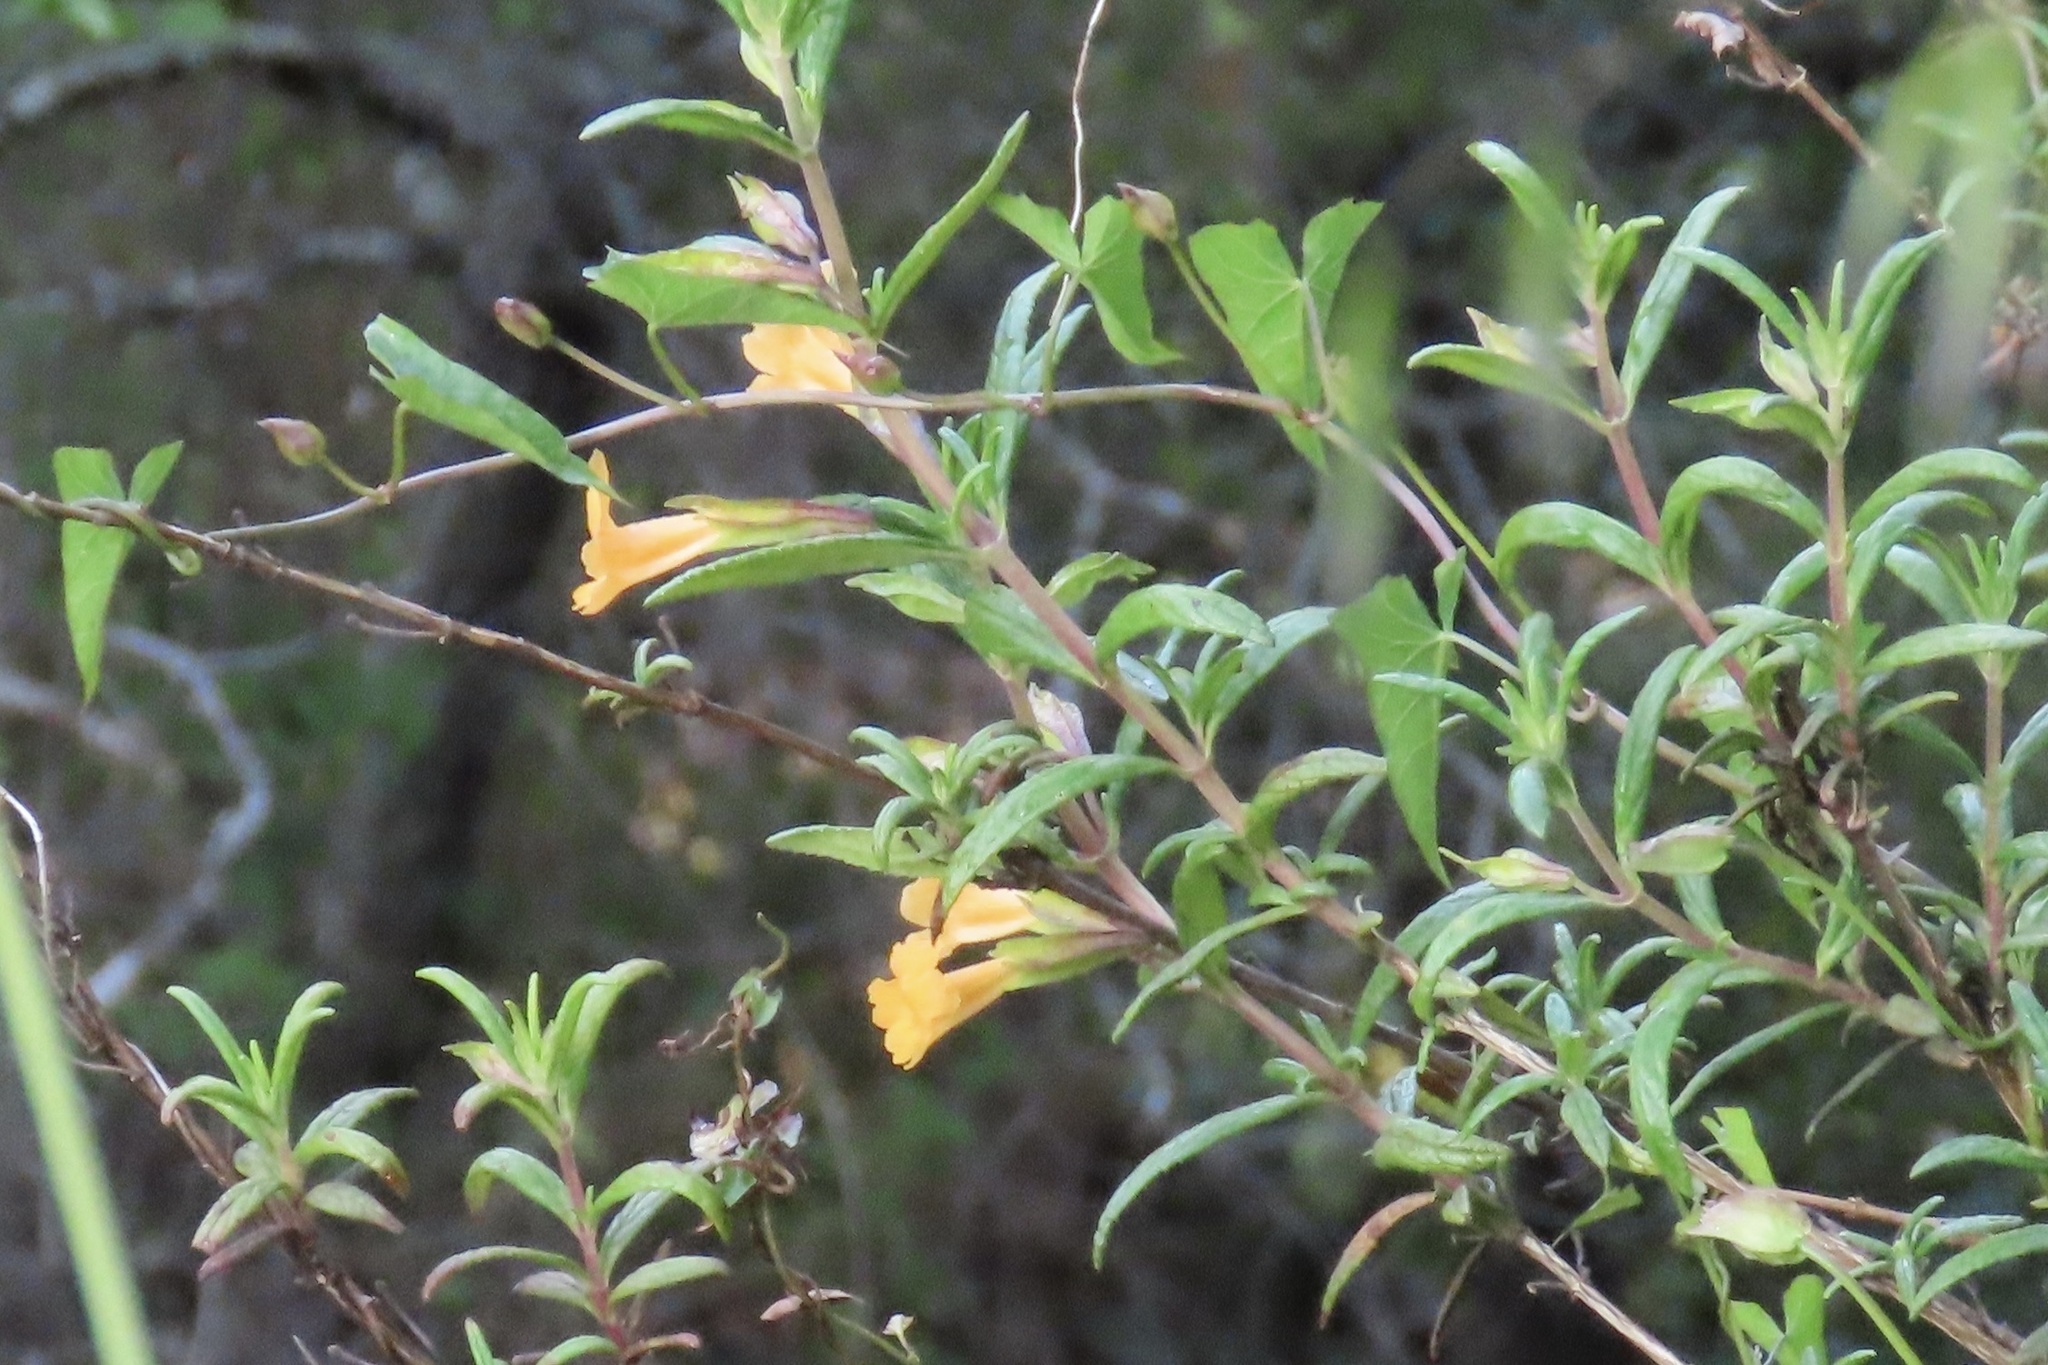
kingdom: Plantae
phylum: Tracheophyta
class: Magnoliopsida
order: Lamiales
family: Phrymaceae
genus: Diplacus
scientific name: Diplacus aurantiacus
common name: Bush monkey-flower
